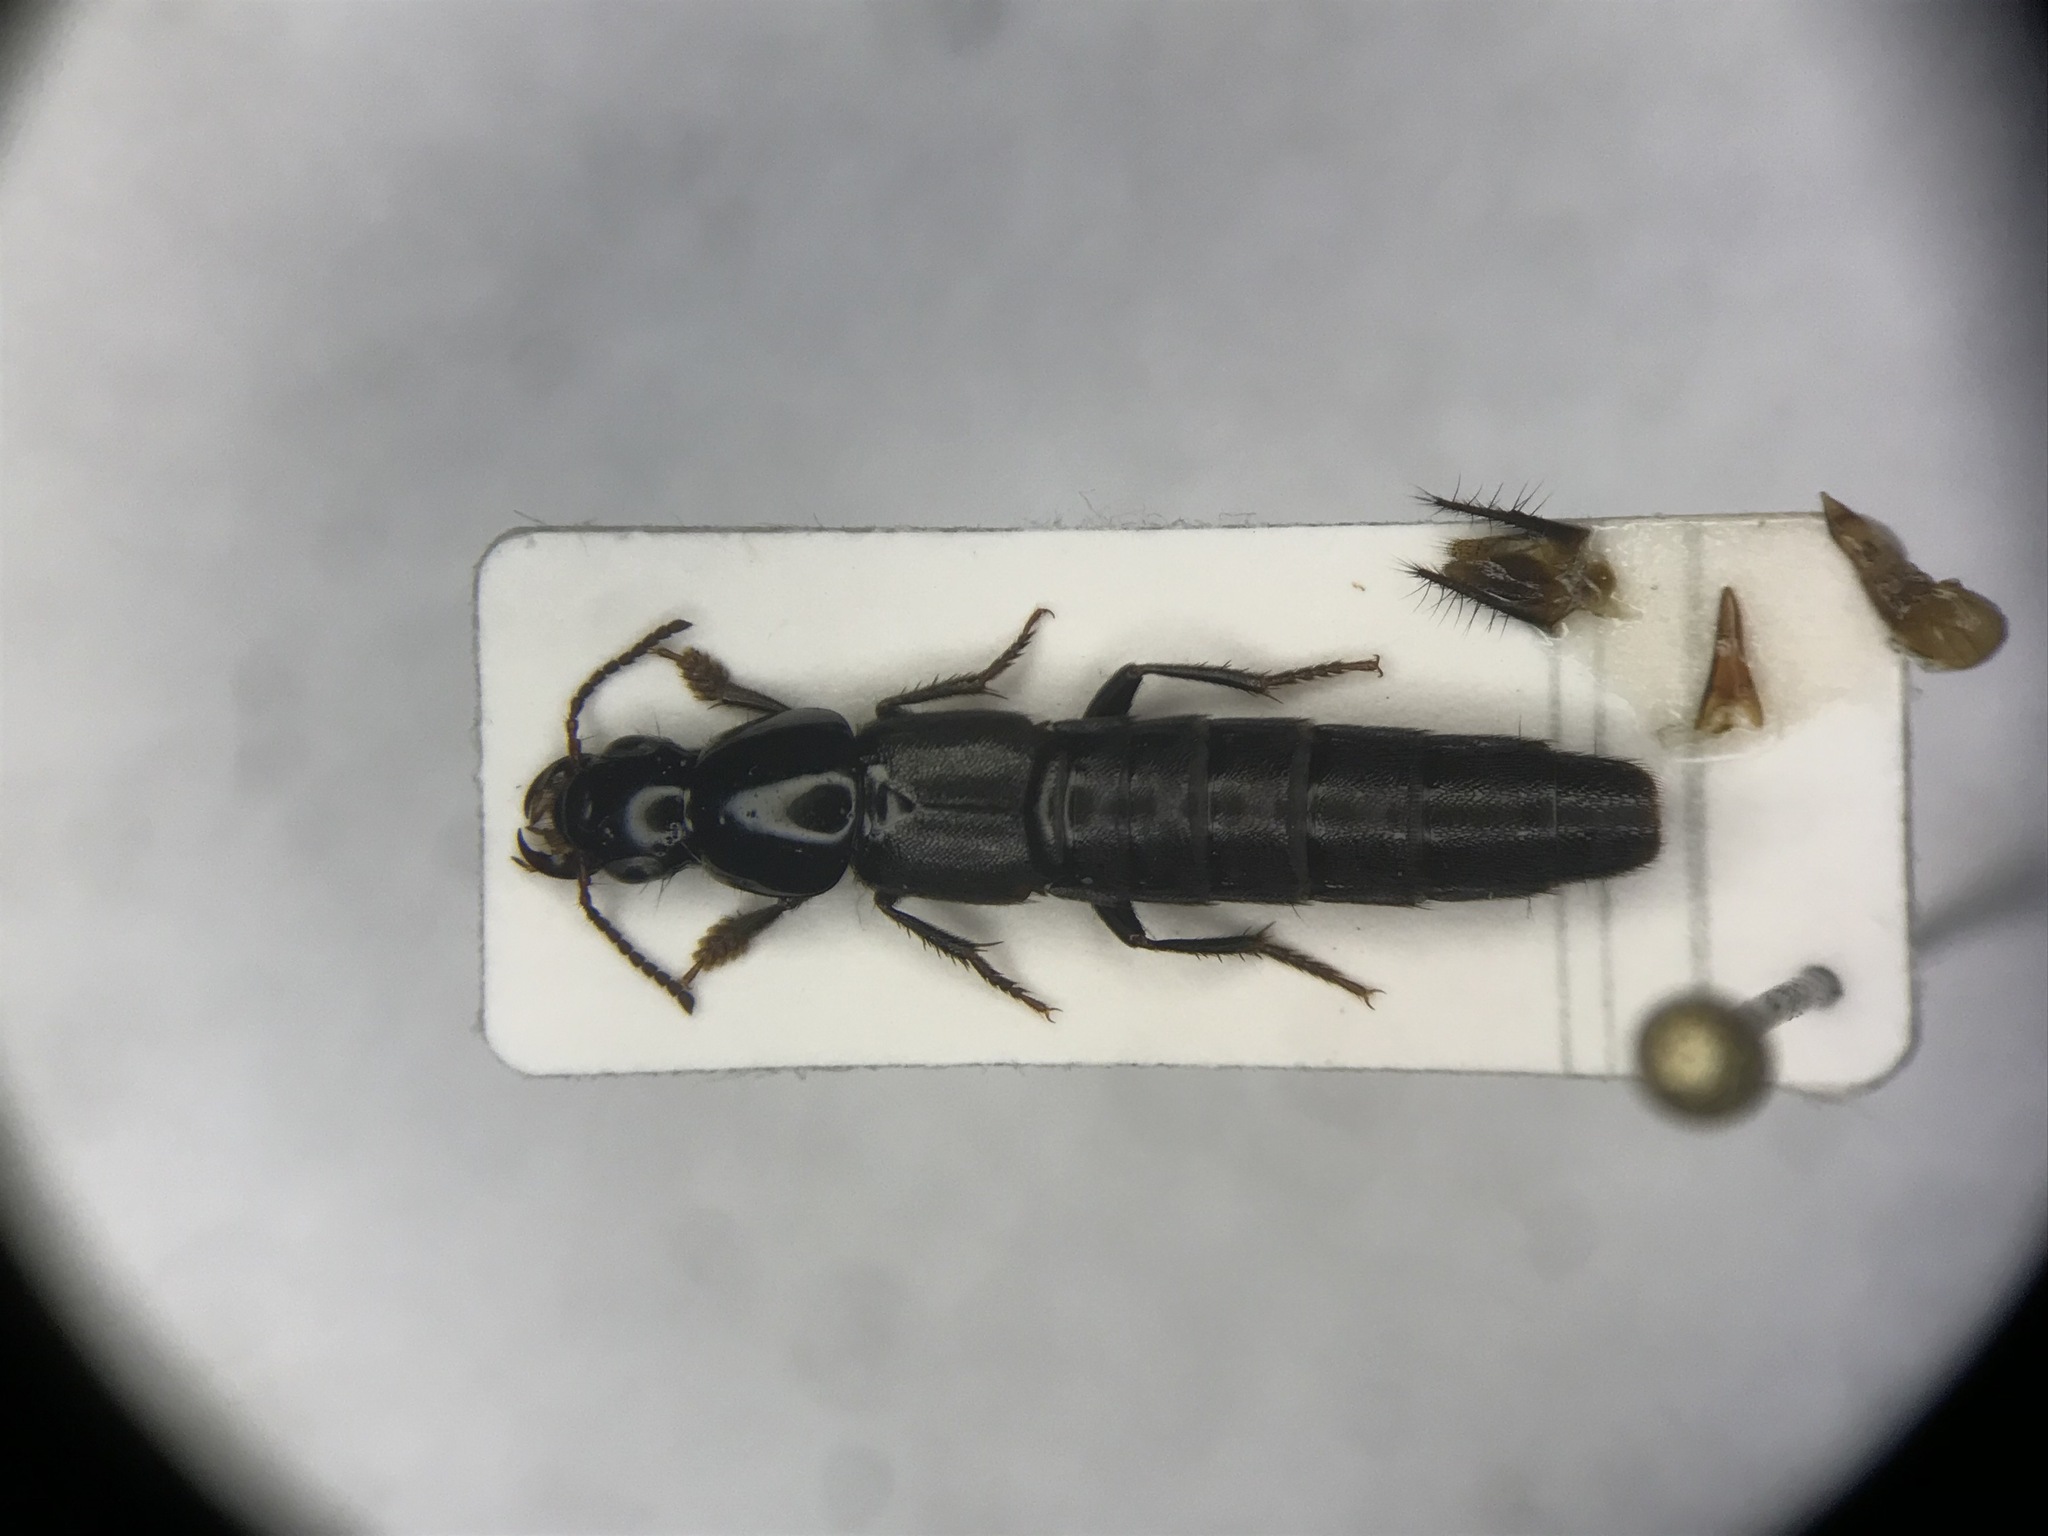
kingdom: Animalia
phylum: Arthropoda
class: Insecta
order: Coleoptera
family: Staphylinidae
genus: Quedius
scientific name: Quedius curtipennis
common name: Large rove beetle
